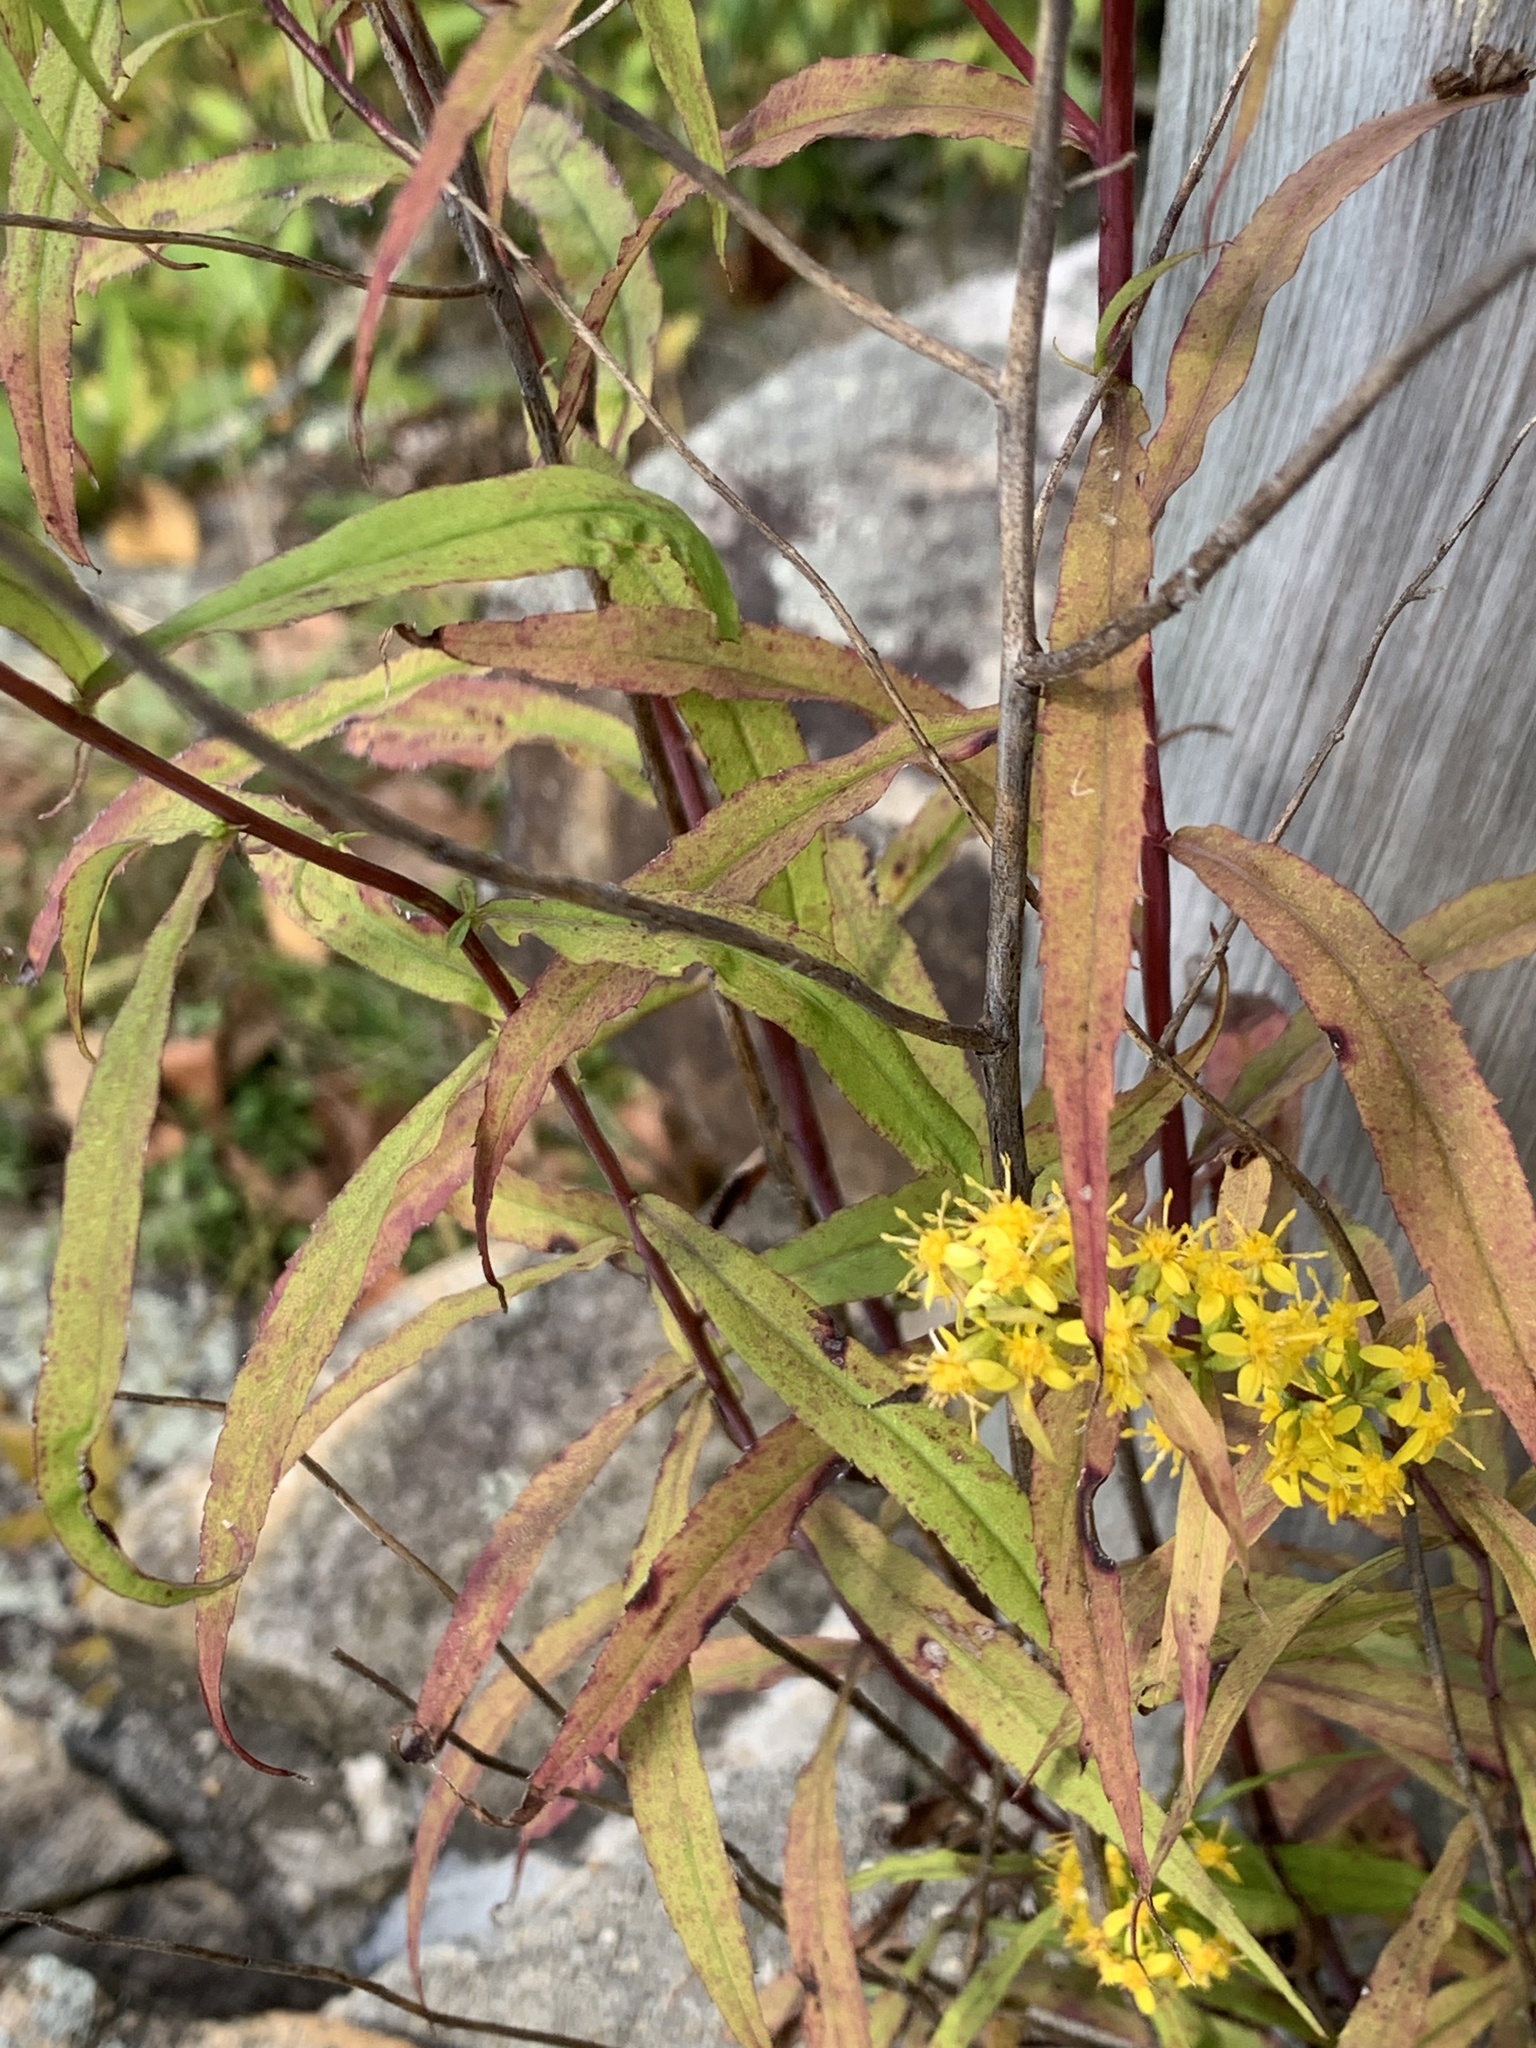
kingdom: Plantae
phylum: Tracheophyta
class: Magnoliopsida
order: Asterales
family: Asteraceae
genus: Solidago
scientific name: Solidago caesia
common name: Woodland goldenrod
